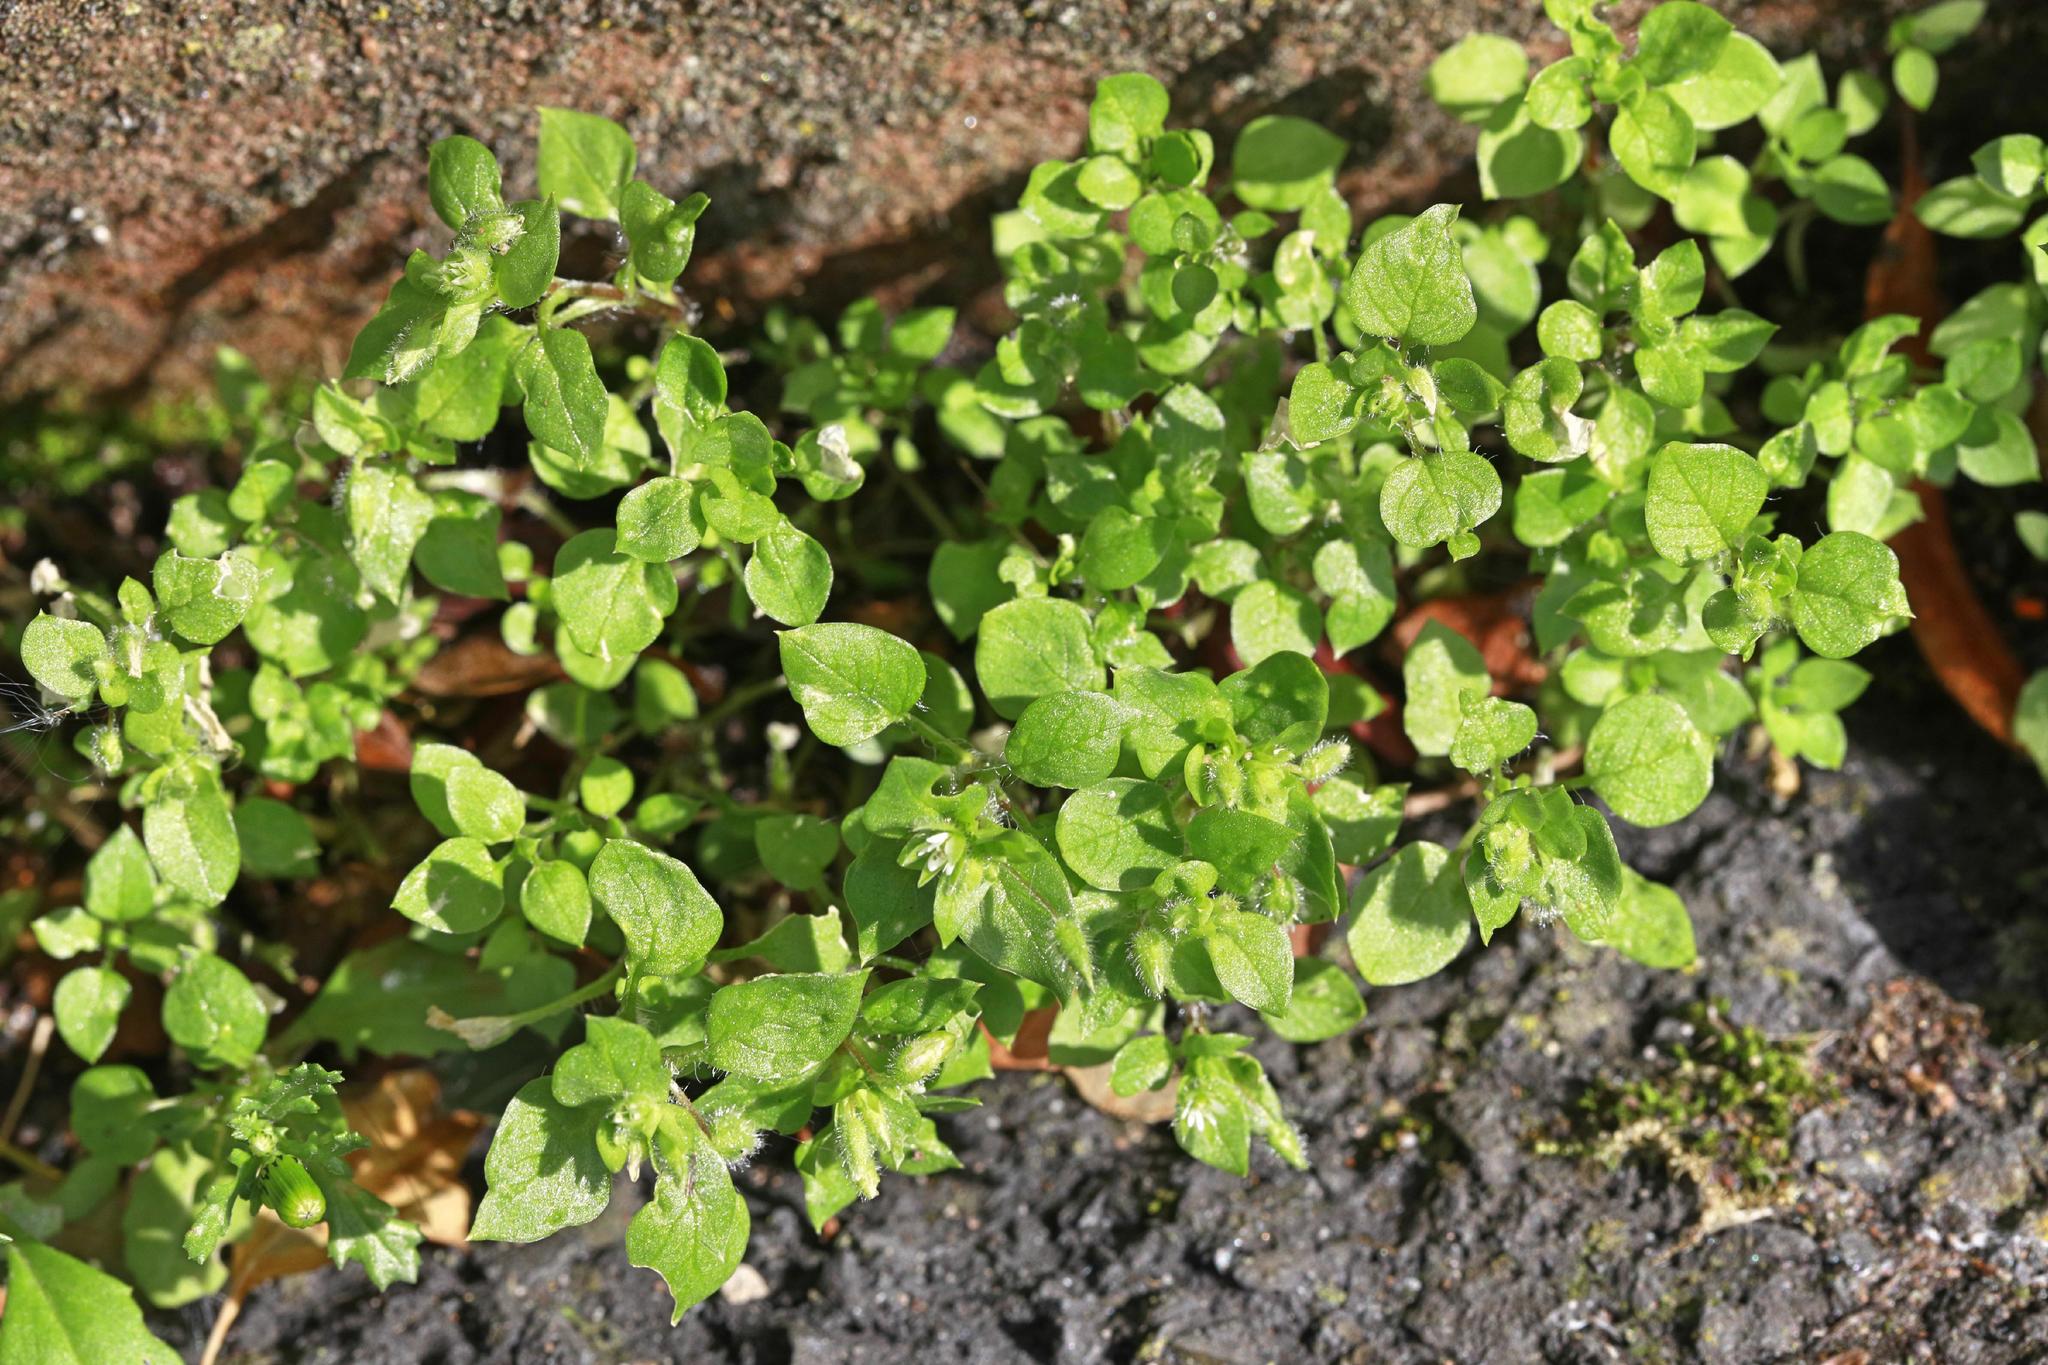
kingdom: Plantae
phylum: Tracheophyta
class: Magnoliopsida
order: Caryophyllales
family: Caryophyllaceae
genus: Stellaria
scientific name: Stellaria media
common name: Common chickweed
